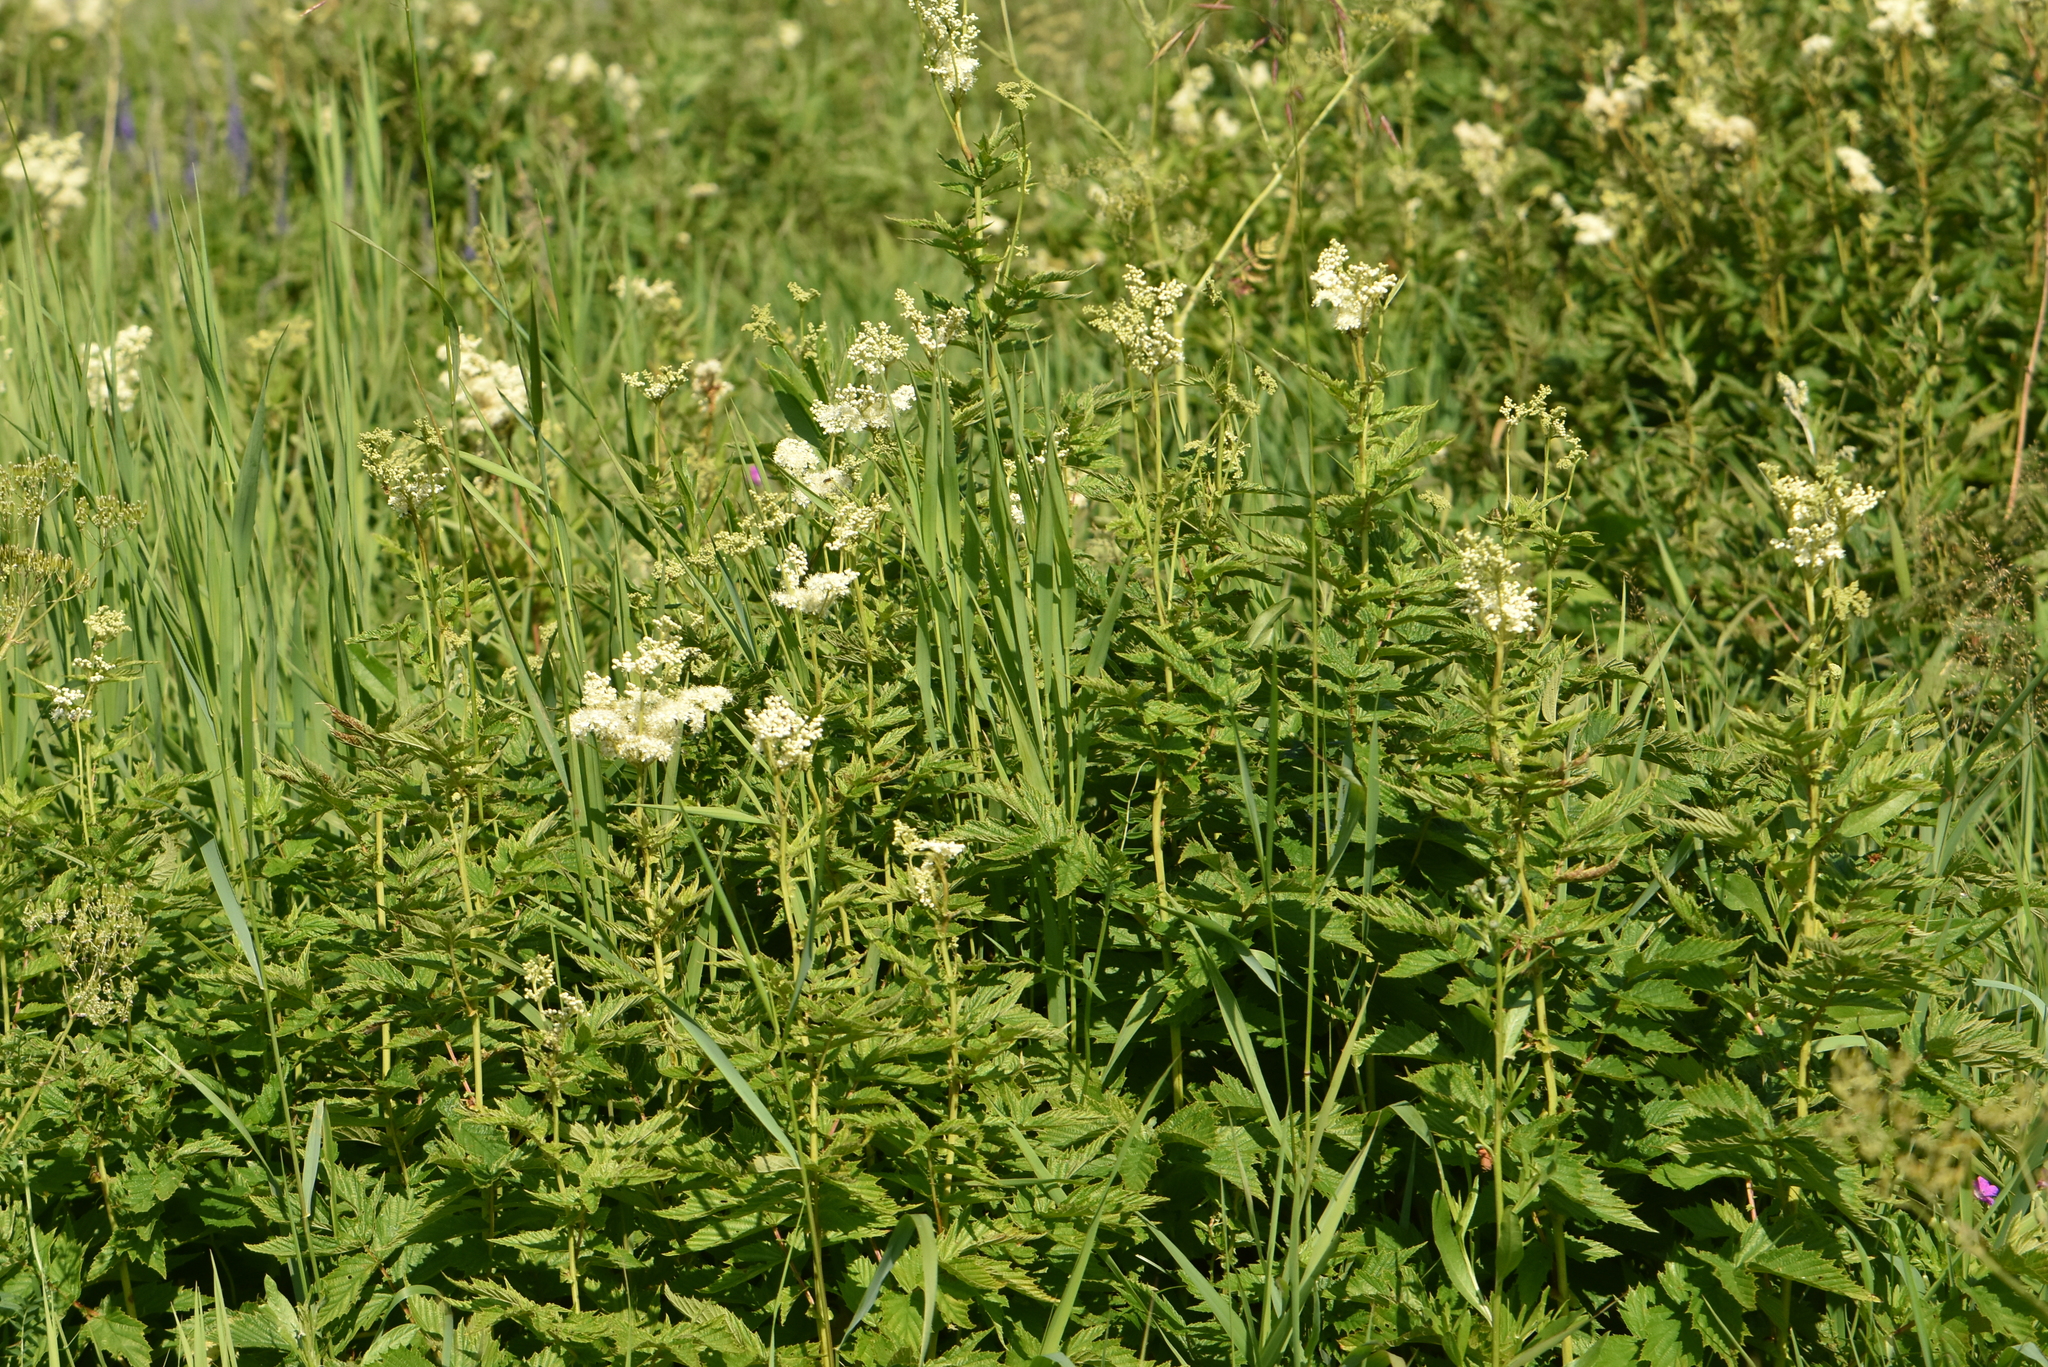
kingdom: Plantae
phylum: Tracheophyta
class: Magnoliopsida
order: Rosales
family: Rosaceae
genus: Filipendula
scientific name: Filipendula ulmaria
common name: Meadowsweet
